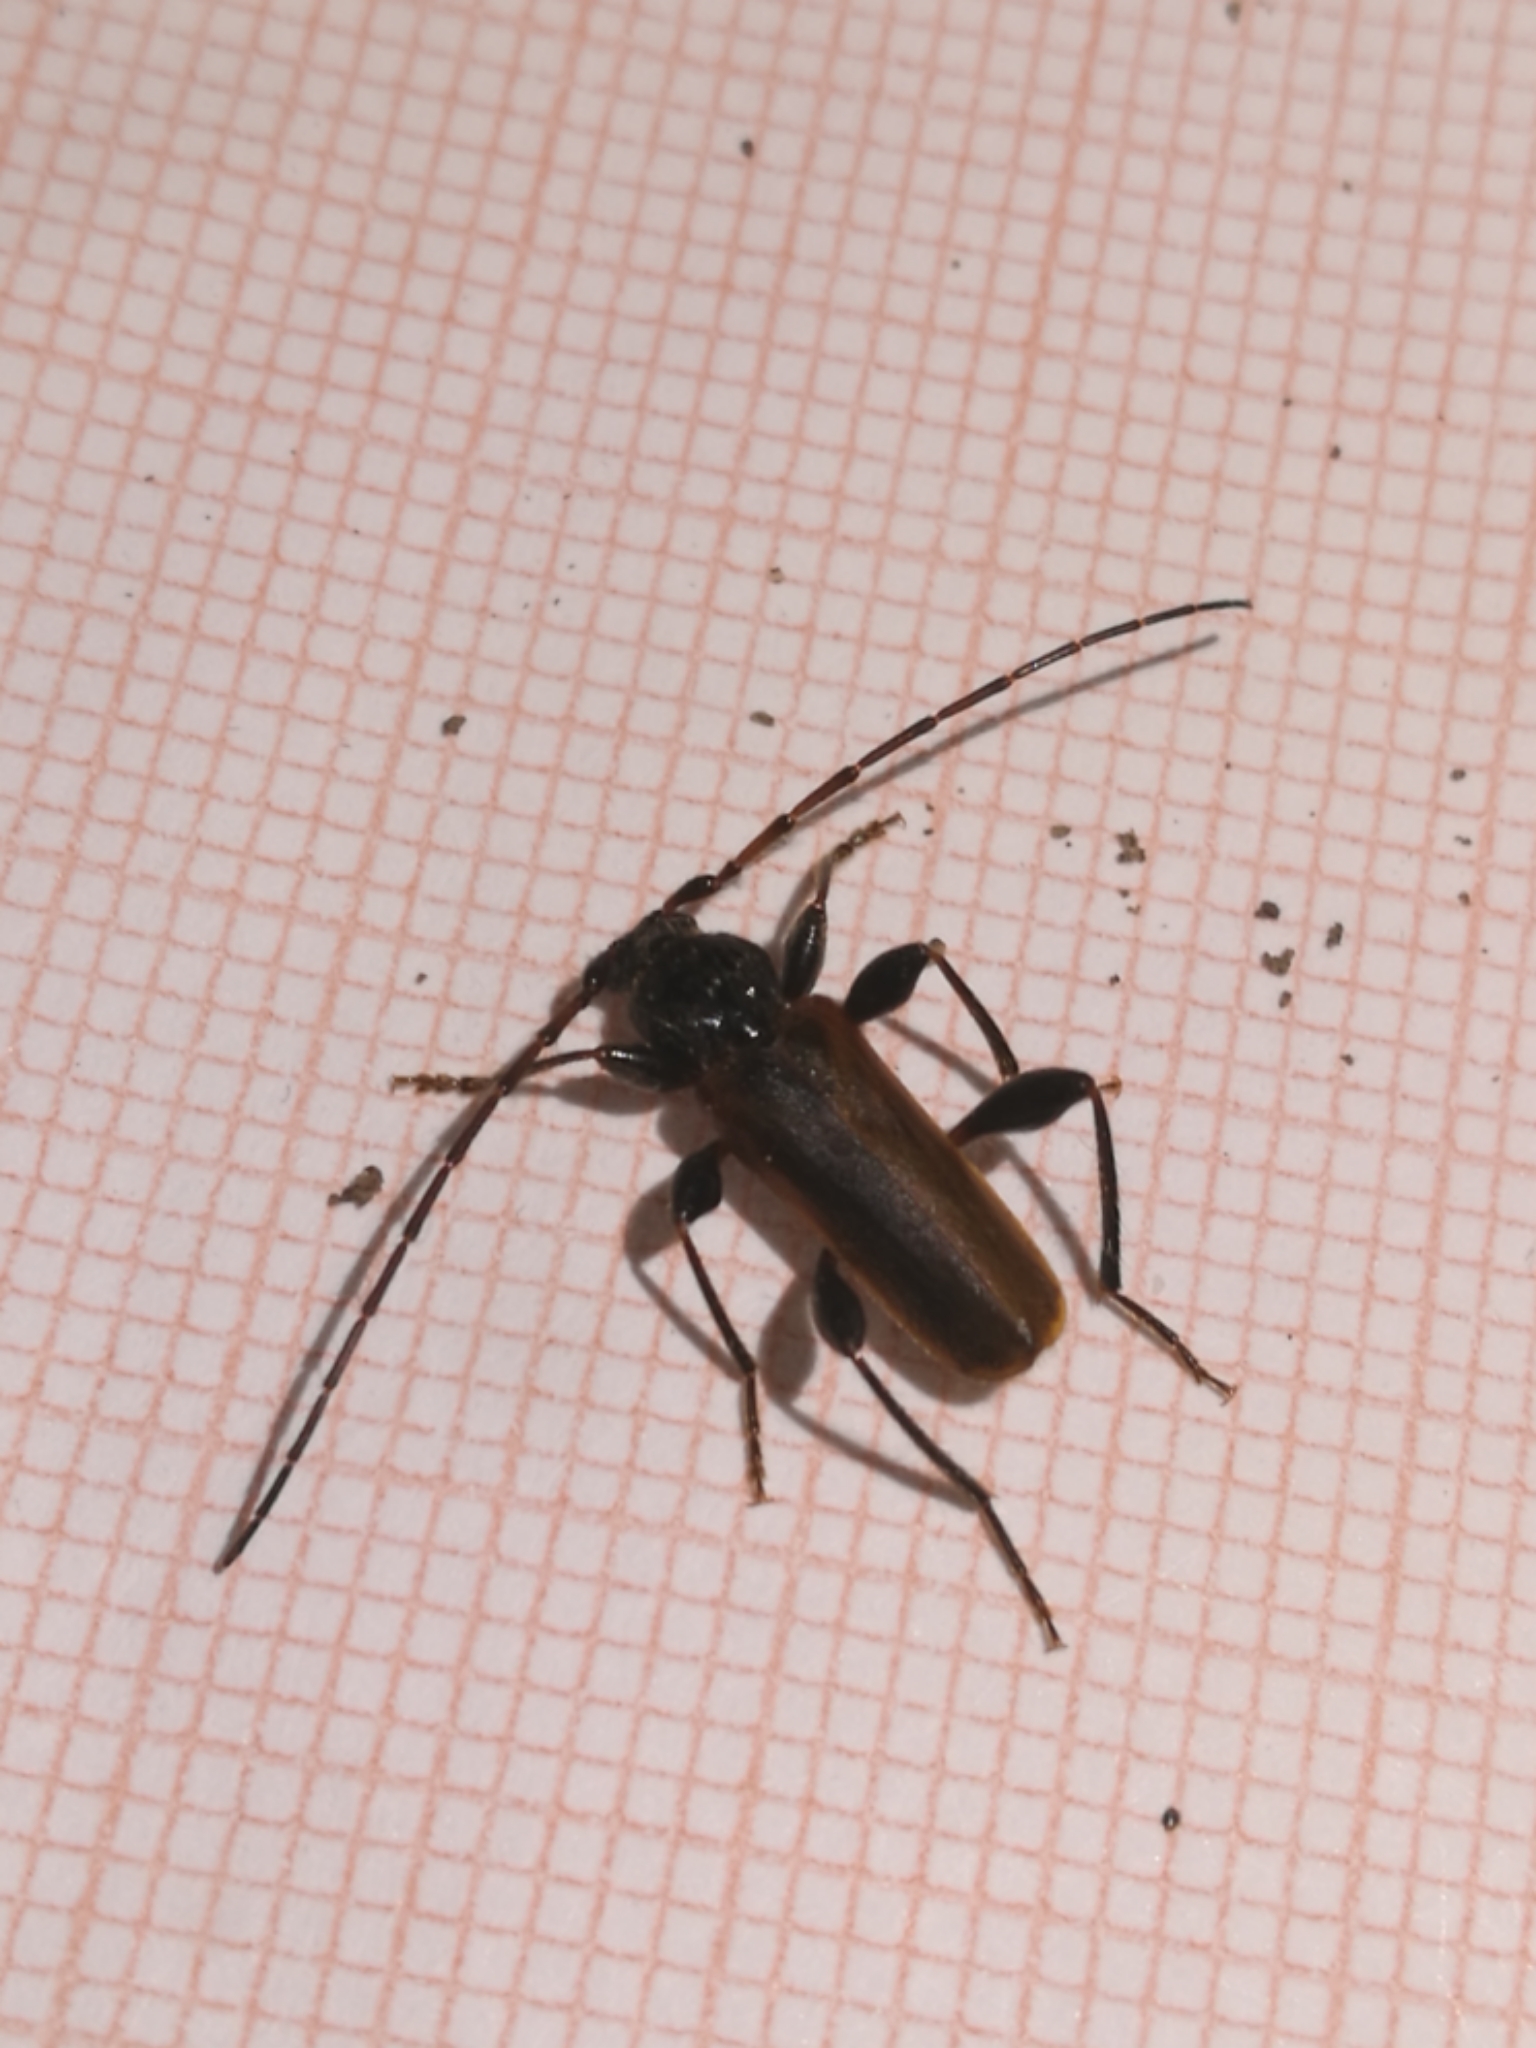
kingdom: Animalia
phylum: Arthropoda
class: Insecta
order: Coleoptera
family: Cerambycidae
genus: Phymatodes
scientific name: Phymatodes testaceus
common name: Long-horned beetle
